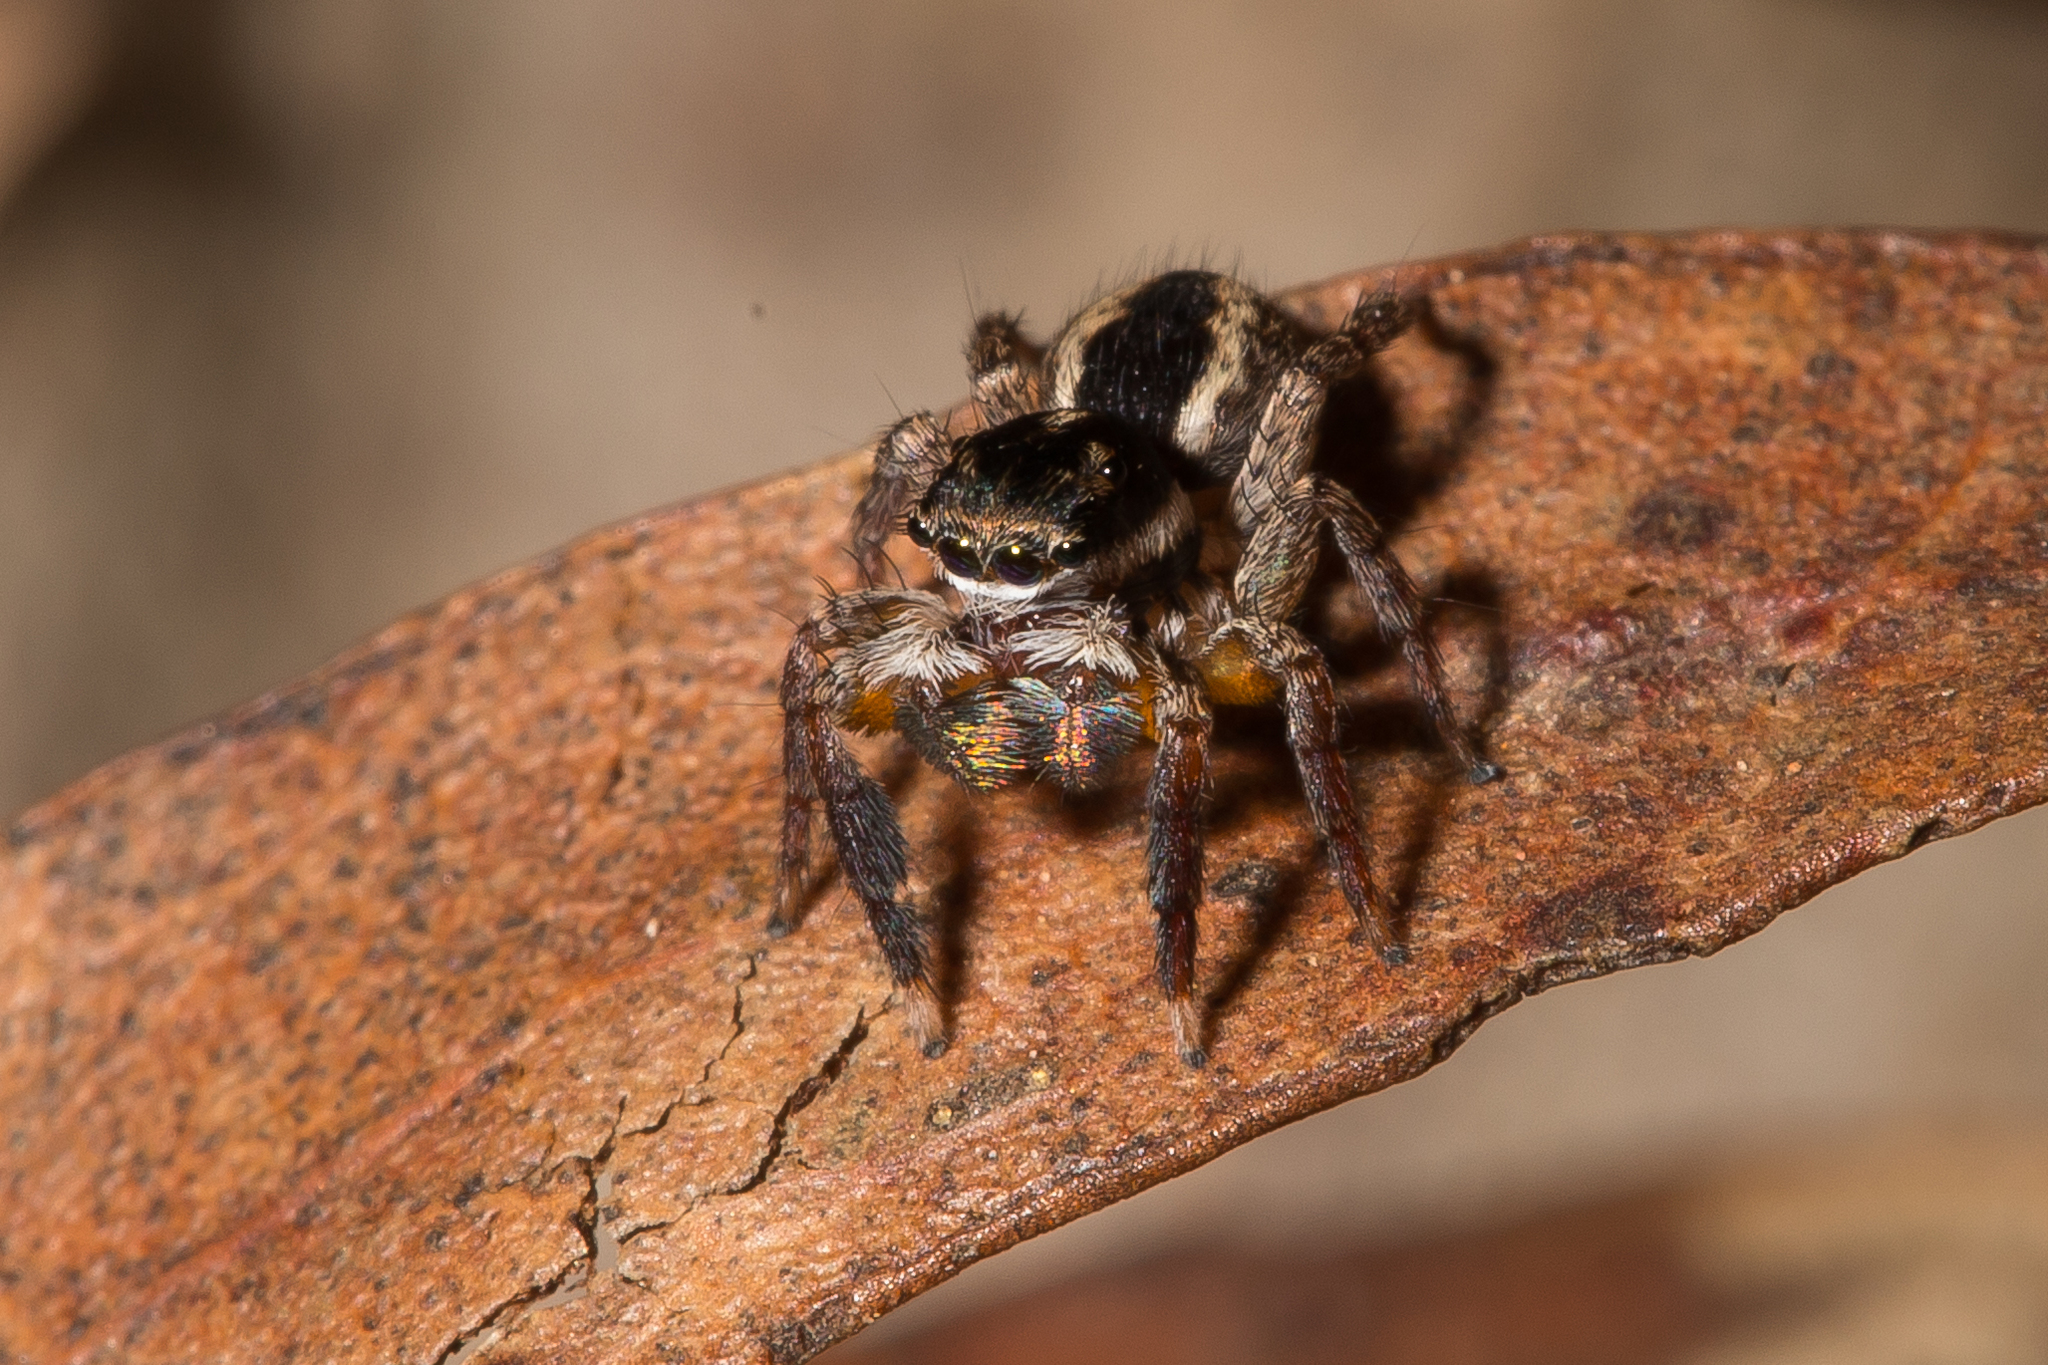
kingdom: Animalia
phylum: Arthropoda
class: Arachnida
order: Araneae
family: Salticidae
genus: Jotus
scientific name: Jotus auripes
